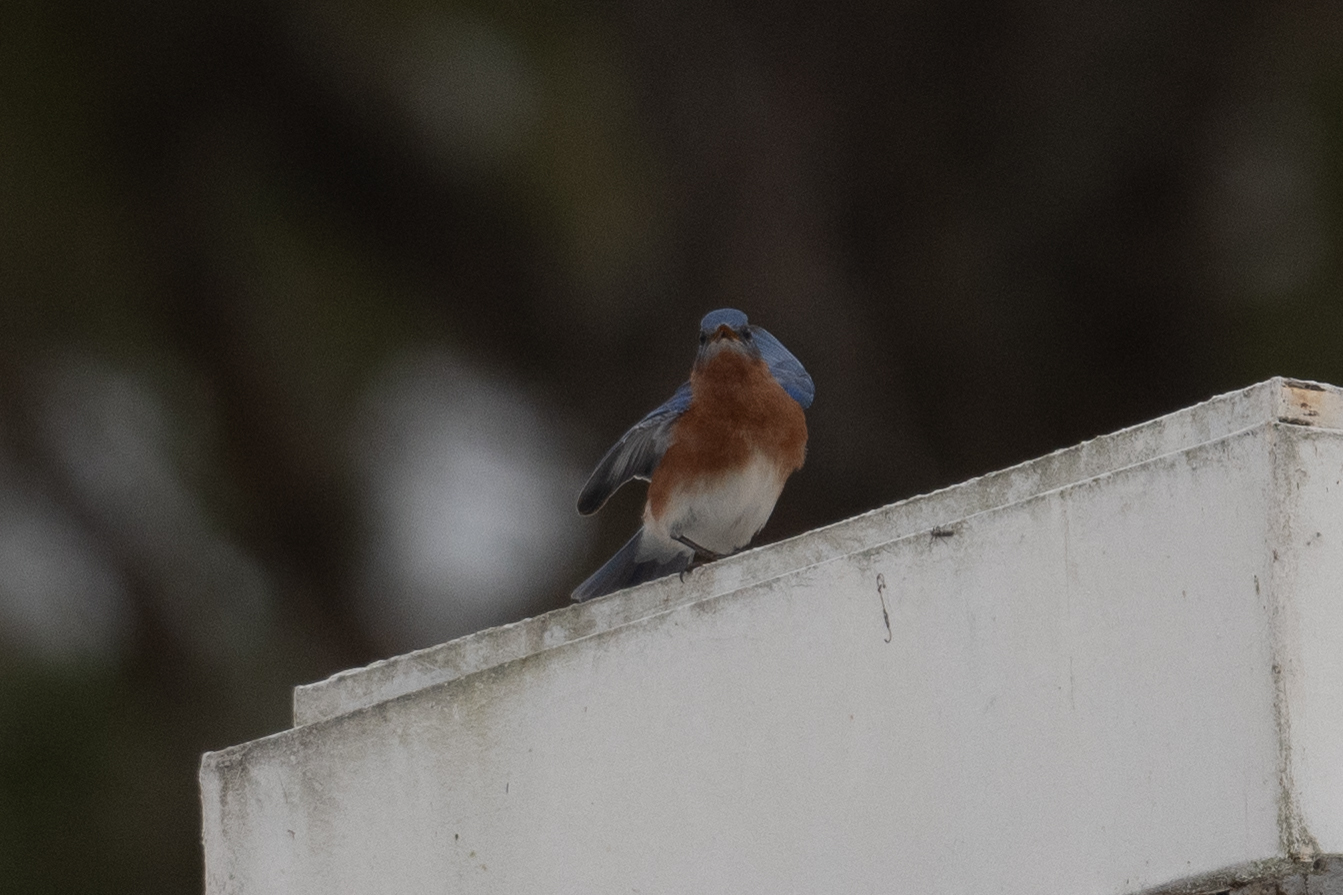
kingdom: Animalia
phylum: Chordata
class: Aves
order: Passeriformes
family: Turdidae
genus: Sialia
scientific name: Sialia sialis
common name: Eastern bluebird
